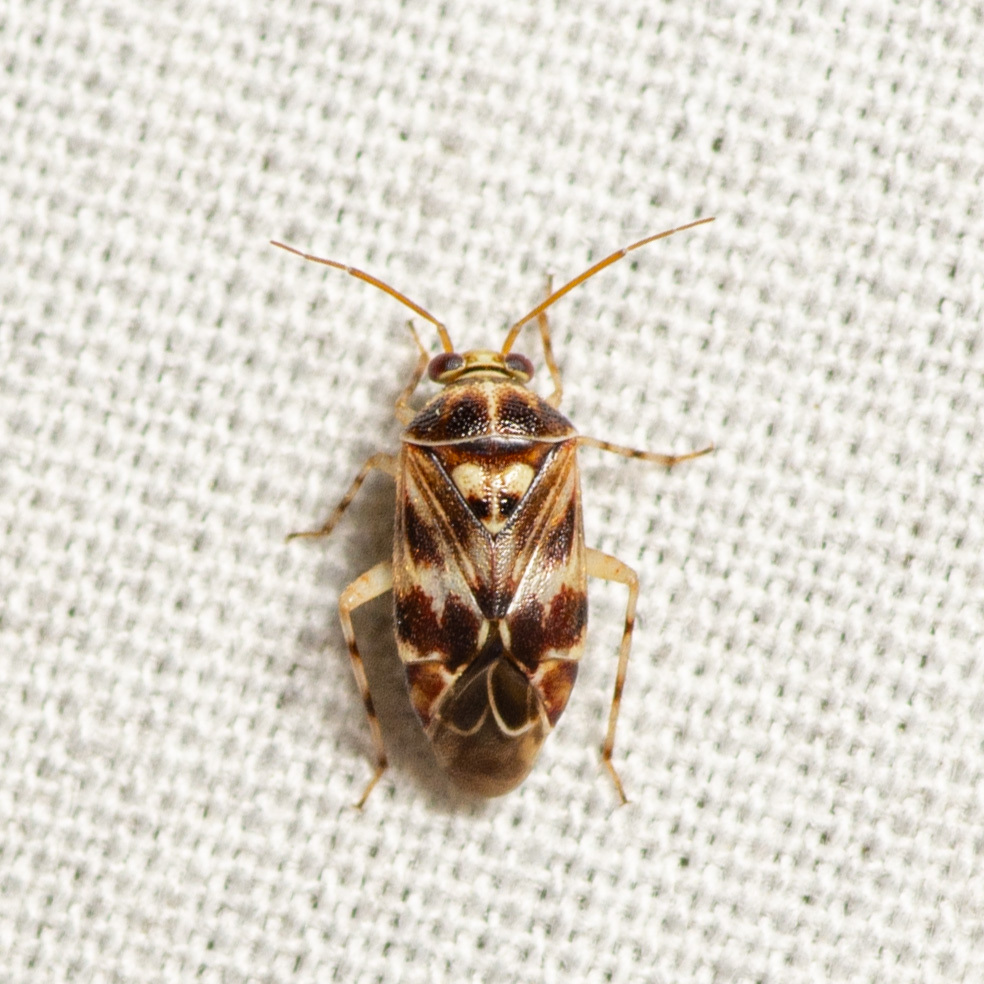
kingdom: Animalia
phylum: Arthropoda
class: Insecta
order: Hemiptera
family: Miridae
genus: Tropidosteptes
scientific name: Tropidosteptes quercicola
